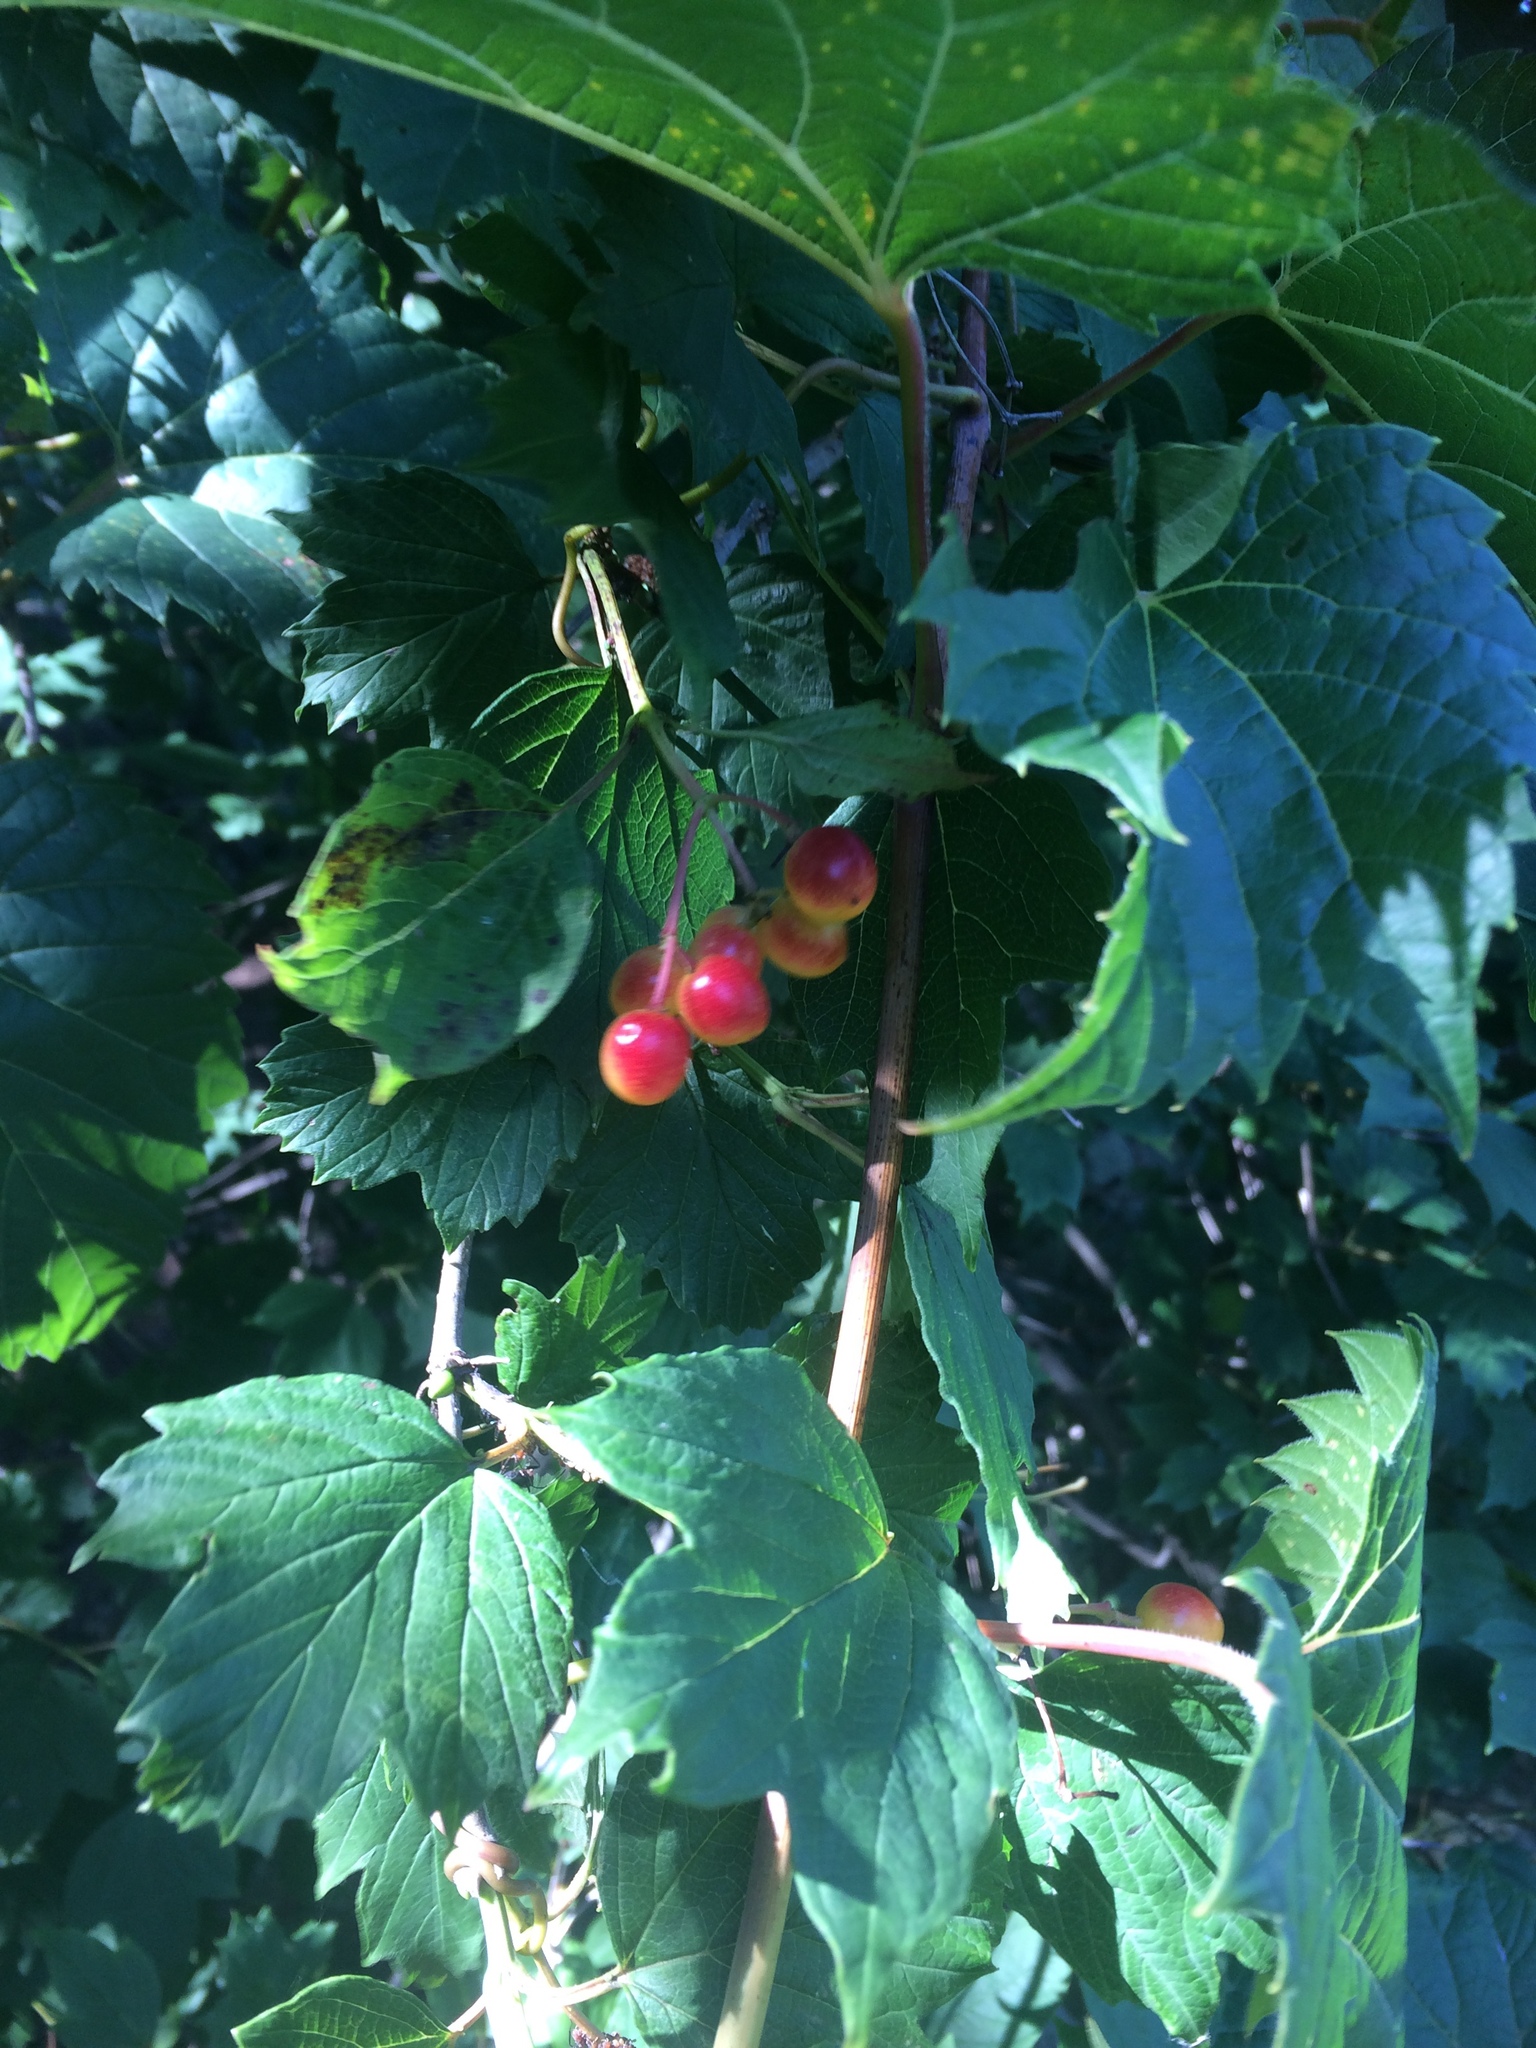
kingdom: Plantae
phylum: Tracheophyta
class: Magnoliopsida
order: Dipsacales
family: Viburnaceae
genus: Viburnum
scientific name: Viburnum opulus
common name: Guelder-rose
